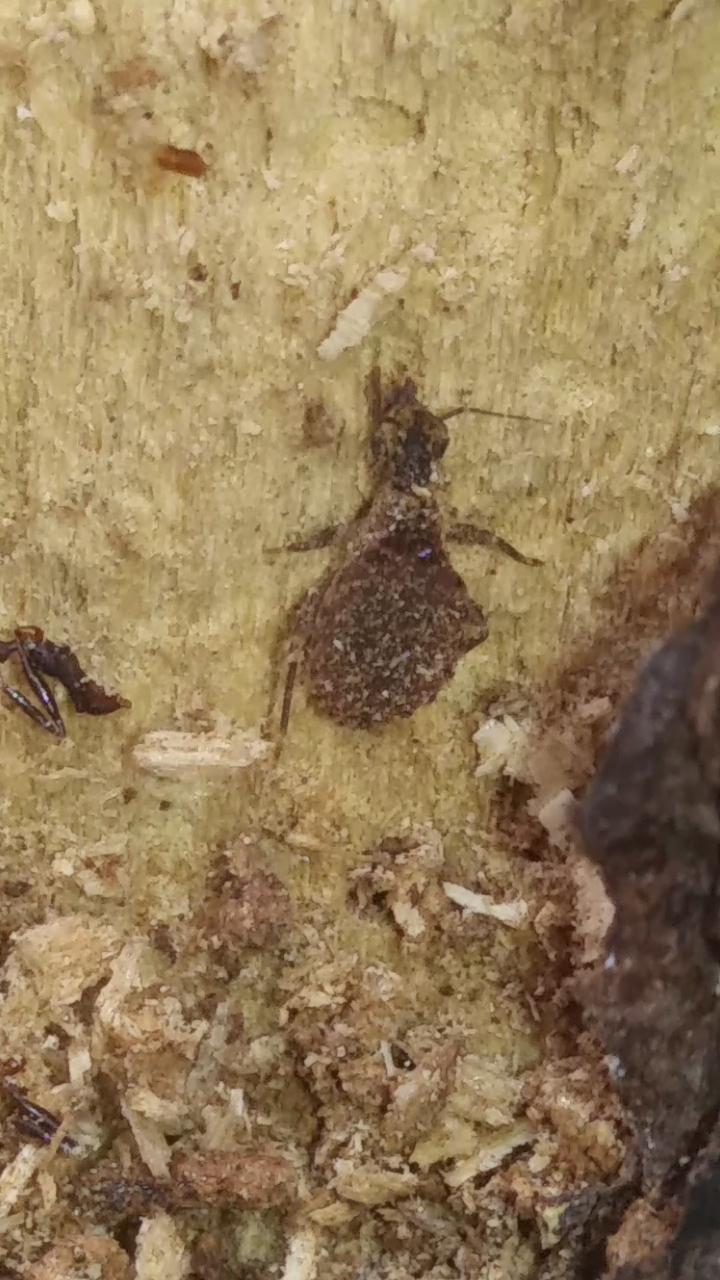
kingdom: Animalia
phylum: Arthropoda
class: Insecta
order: Hemiptera
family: Reduviidae
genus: Triatoma
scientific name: Triatoma sanguisuga
